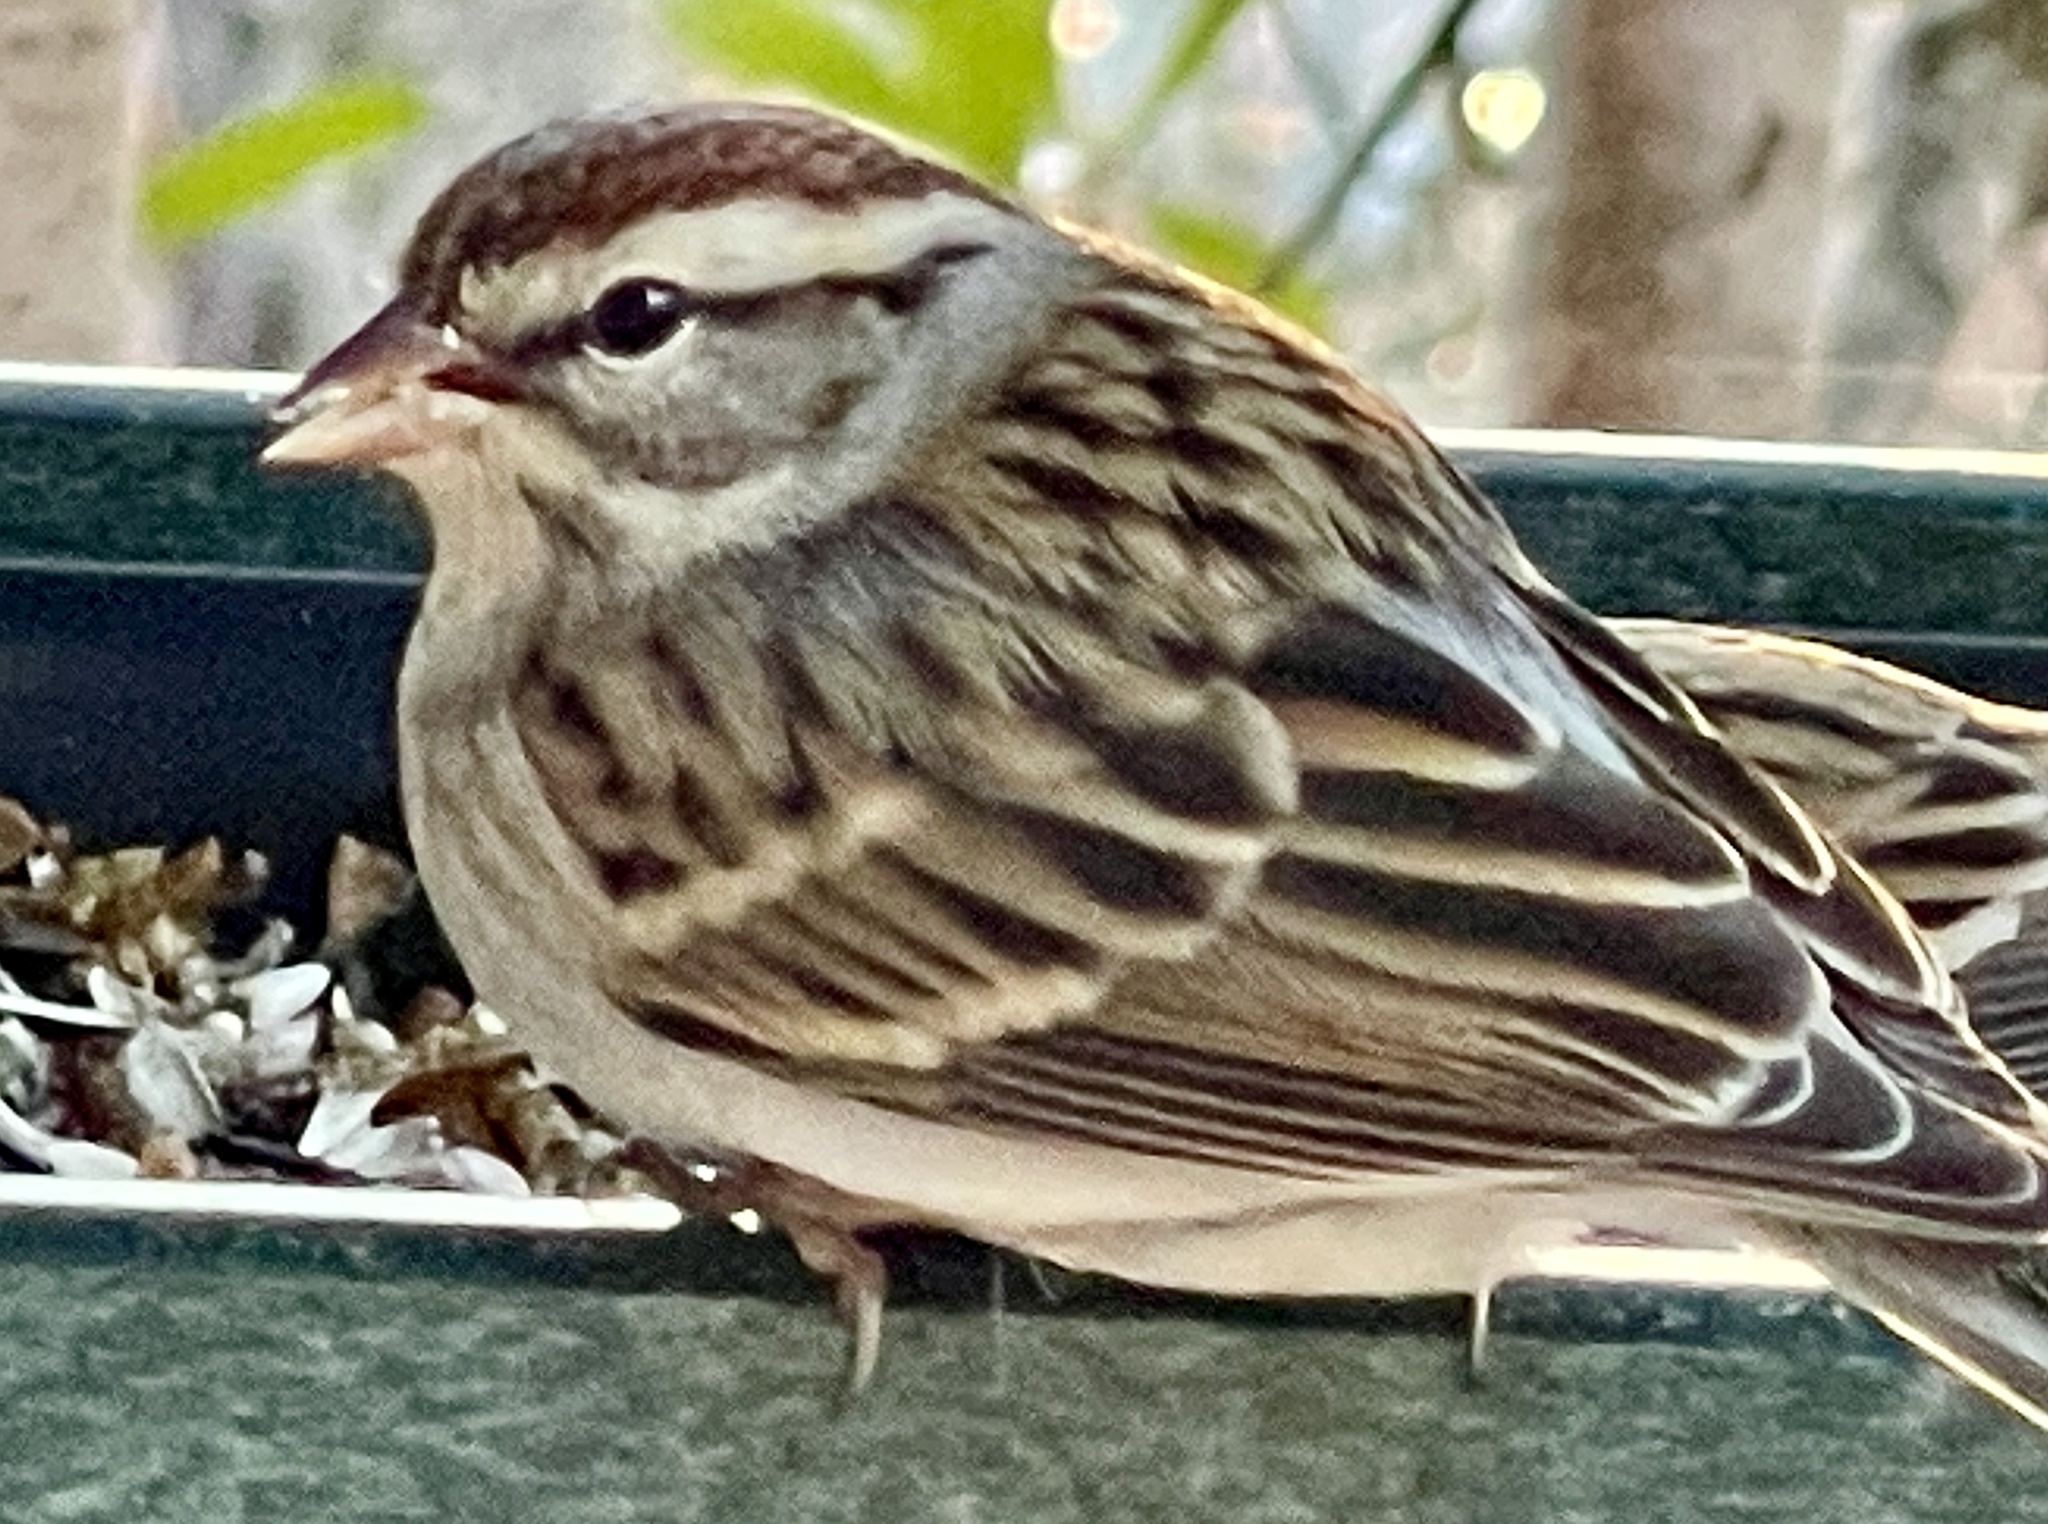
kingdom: Animalia
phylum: Chordata
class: Aves
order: Passeriformes
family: Passerellidae
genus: Spizella
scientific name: Spizella passerina
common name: Chipping sparrow
